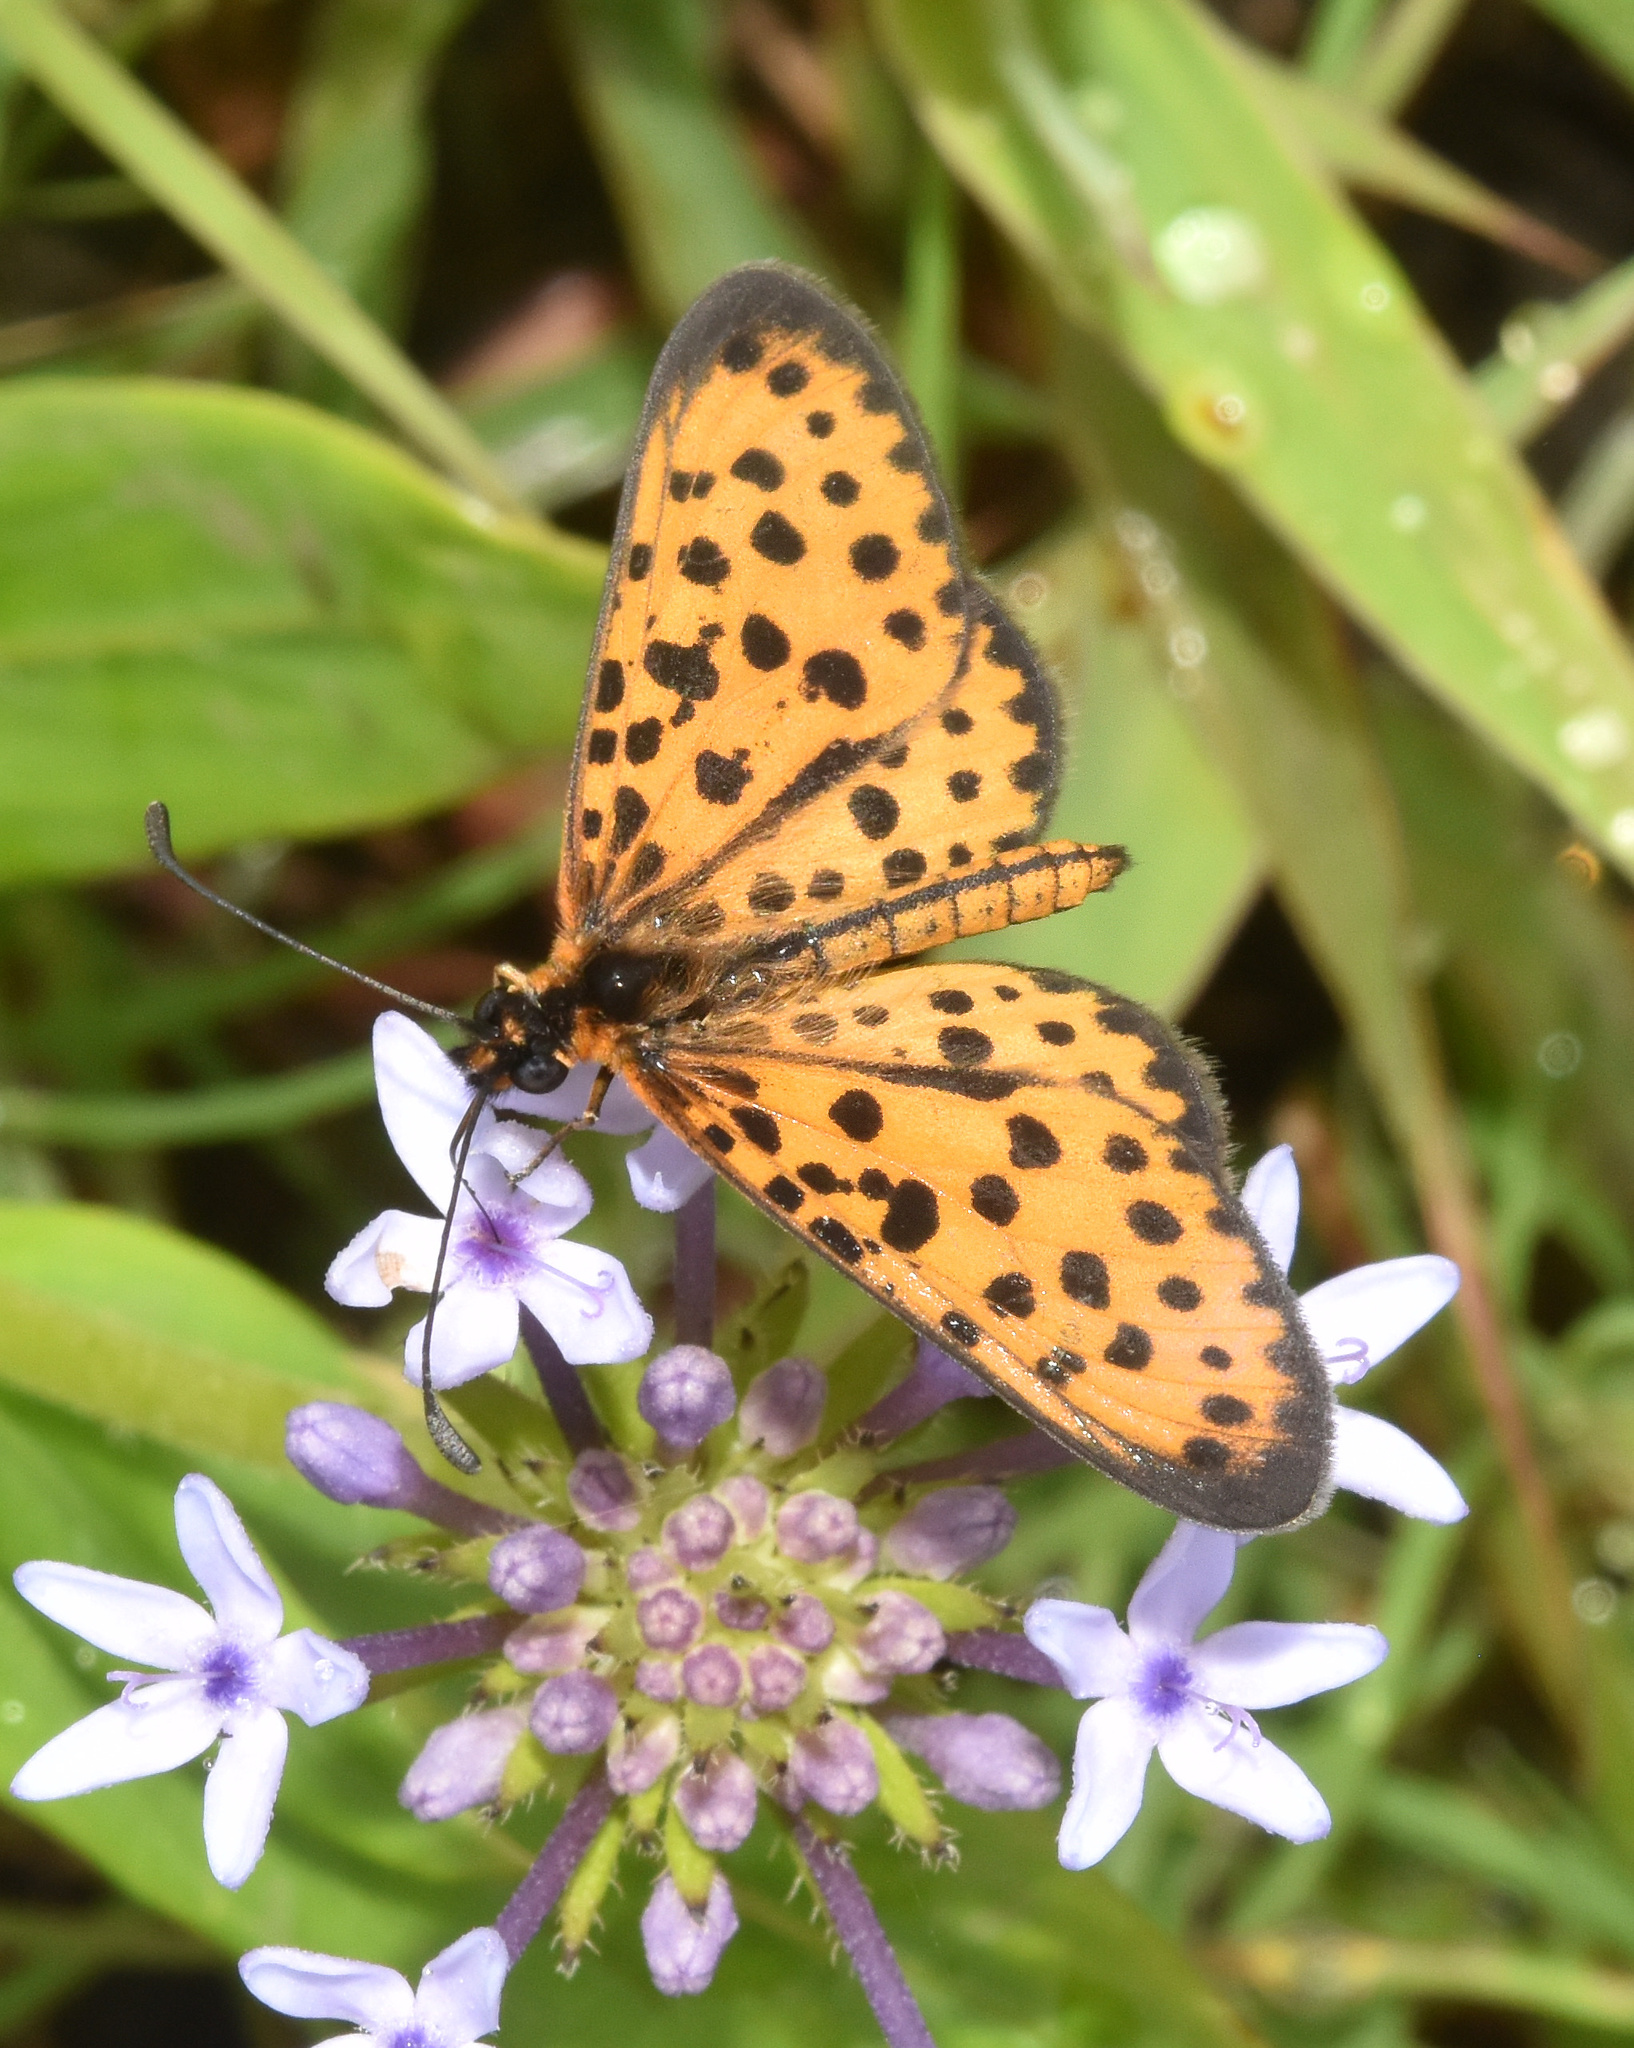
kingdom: Animalia
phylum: Arthropoda
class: Insecta
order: Lepidoptera
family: Nymphalidae
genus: Pardopsis
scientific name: Pardopsis punctatissima
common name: Polka dot
